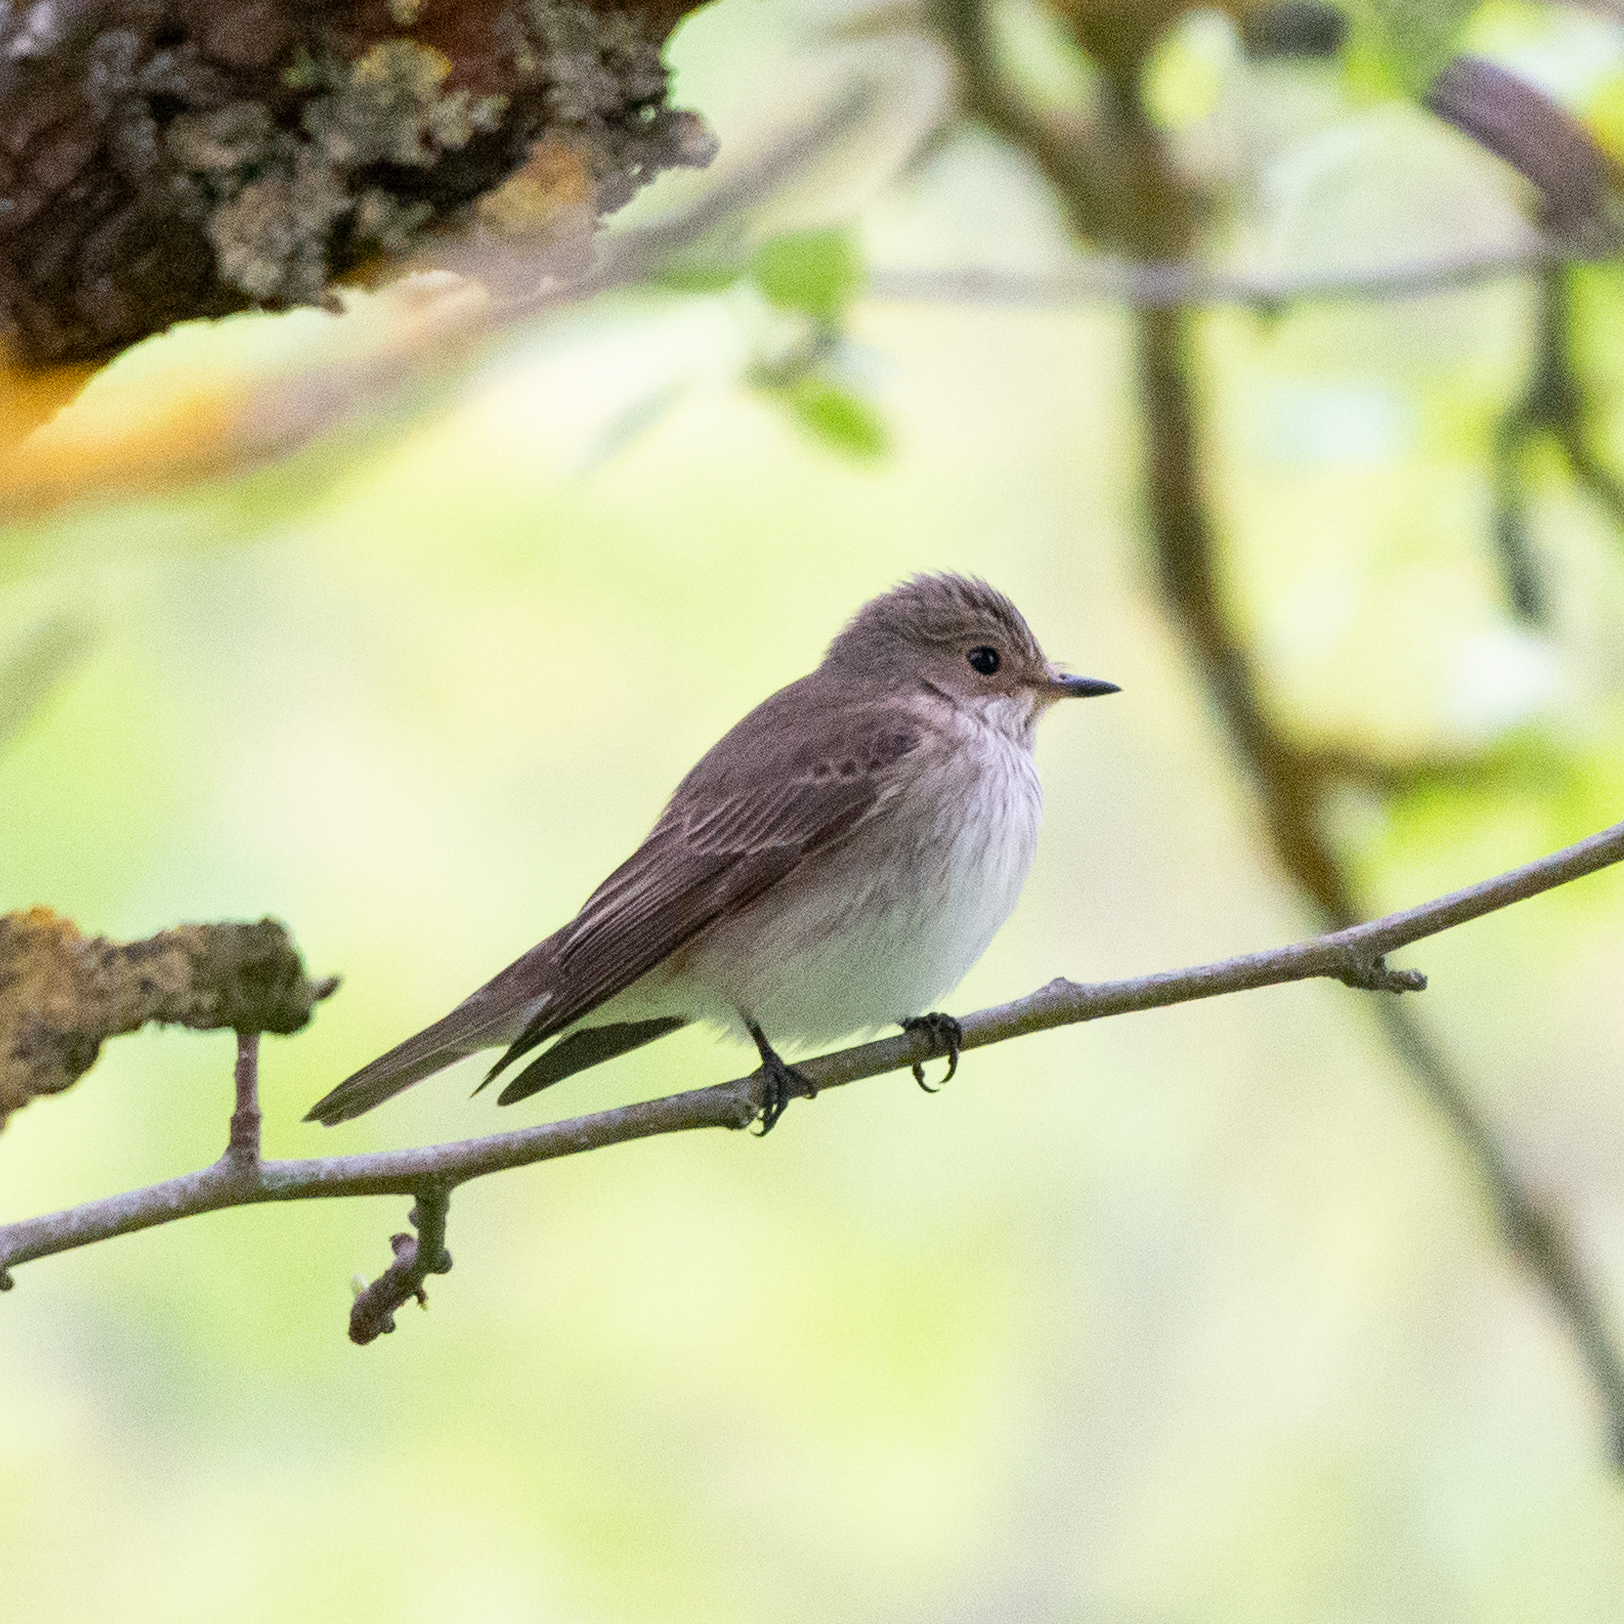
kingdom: Animalia
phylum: Chordata
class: Aves
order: Passeriformes
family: Muscicapidae
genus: Muscicapa
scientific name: Muscicapa striata
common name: Spotted flycatcher
